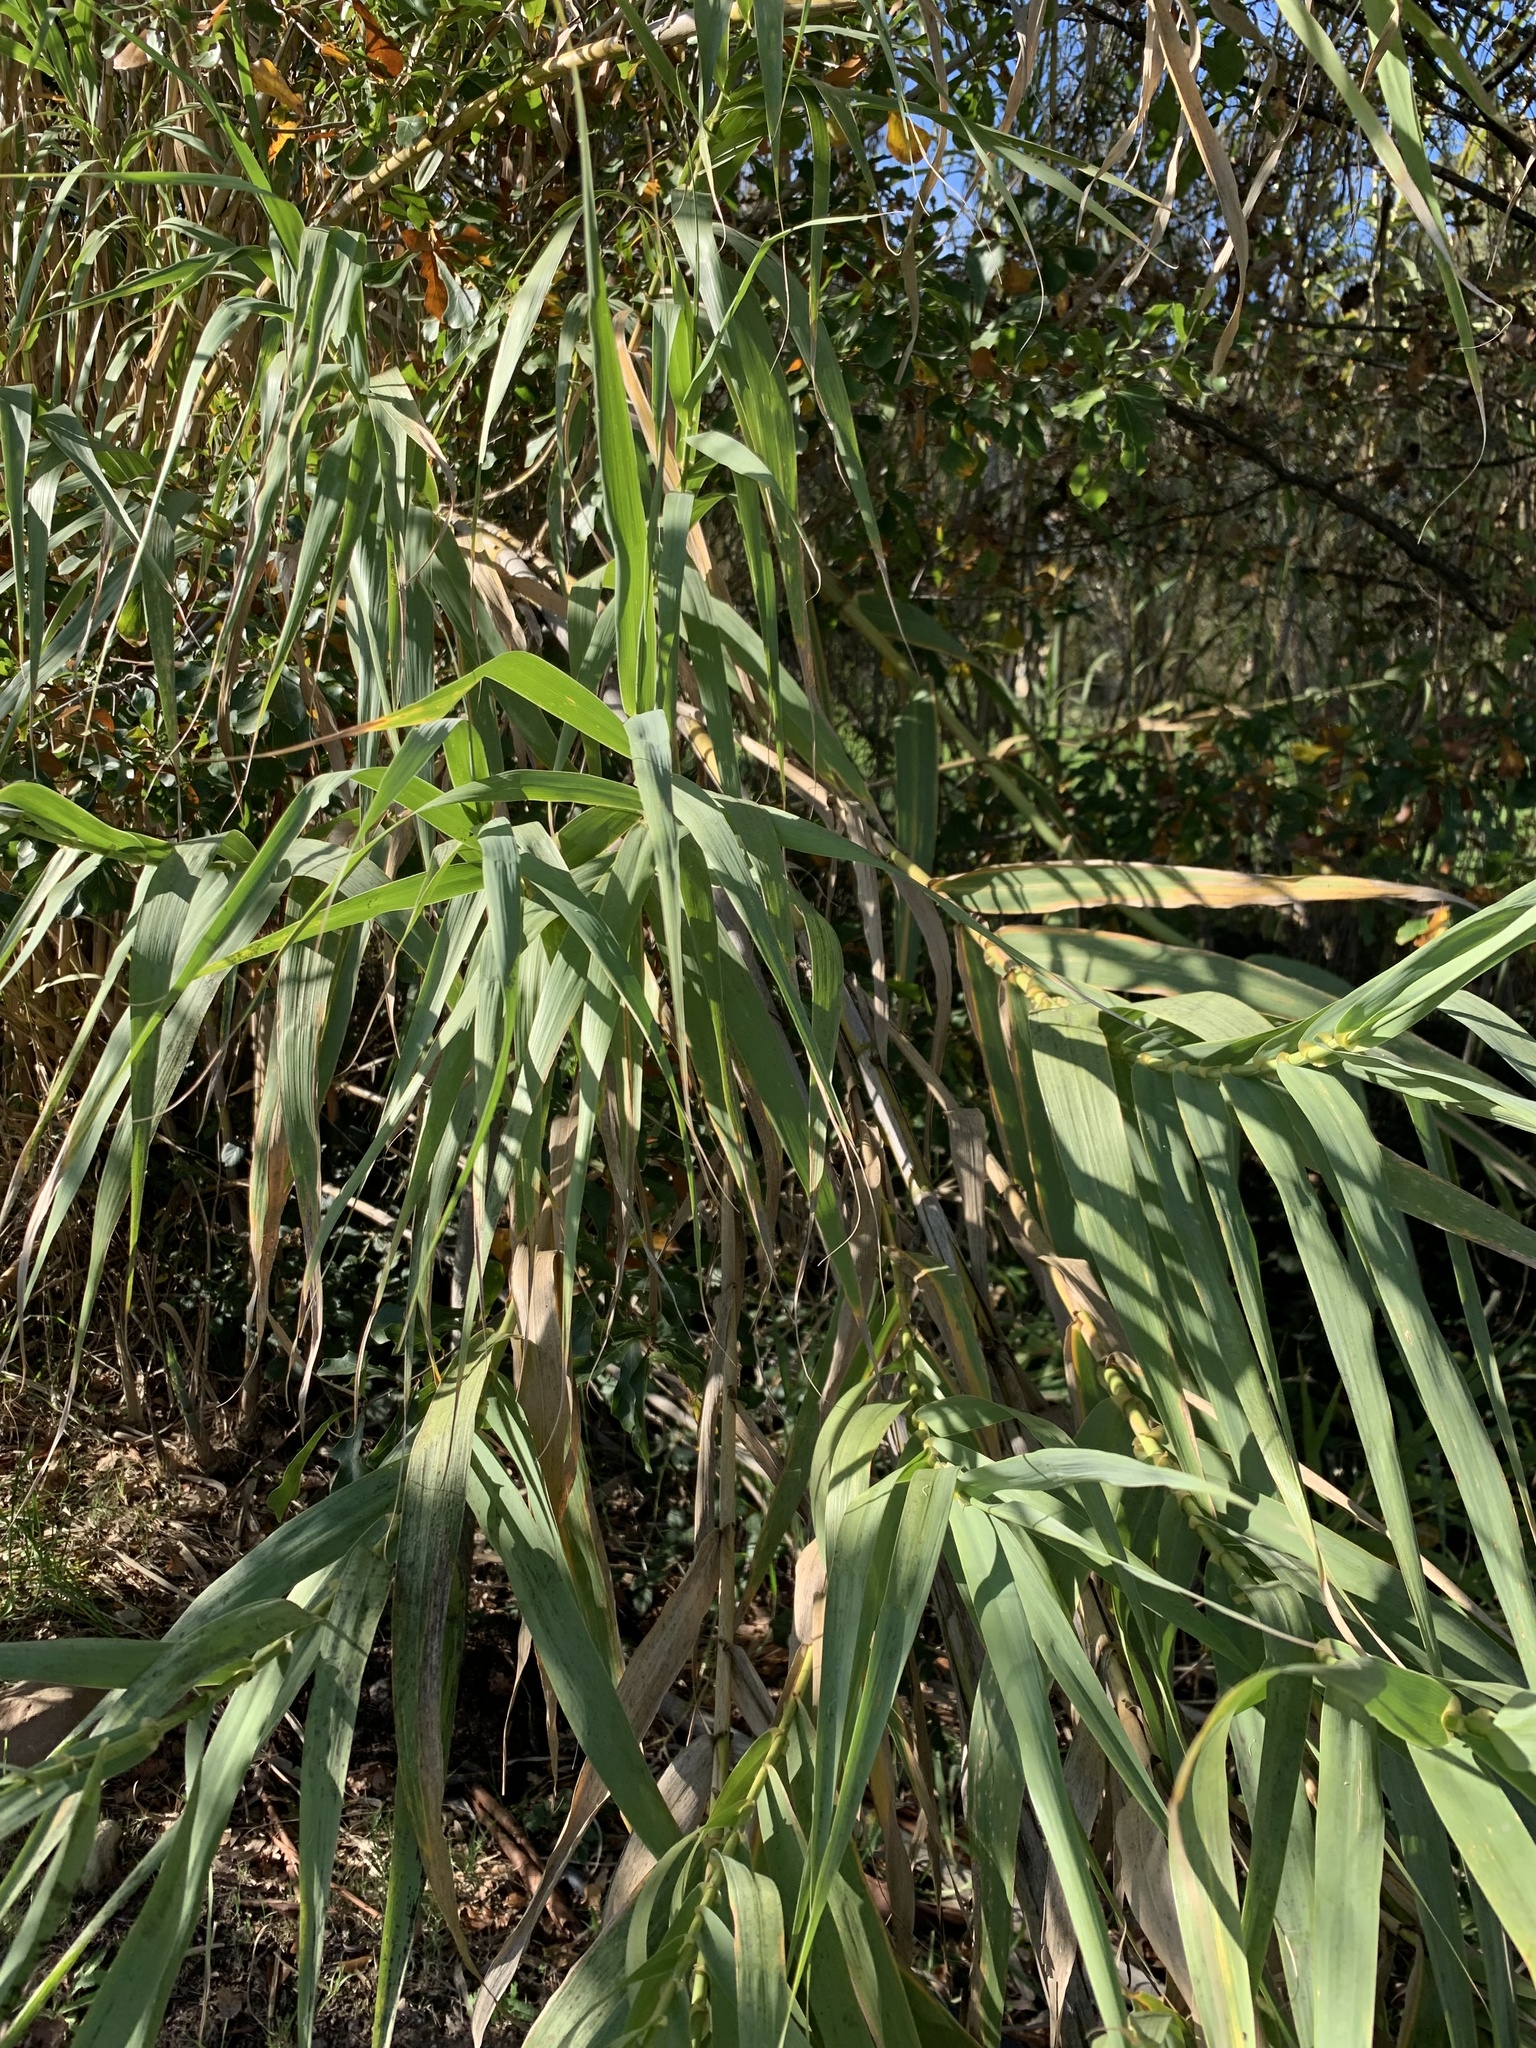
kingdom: Plantae
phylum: Tracheophyta
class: Liliopsida
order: Poales
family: Poaceae
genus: Arundo
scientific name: Arundo donax
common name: Giant reed
